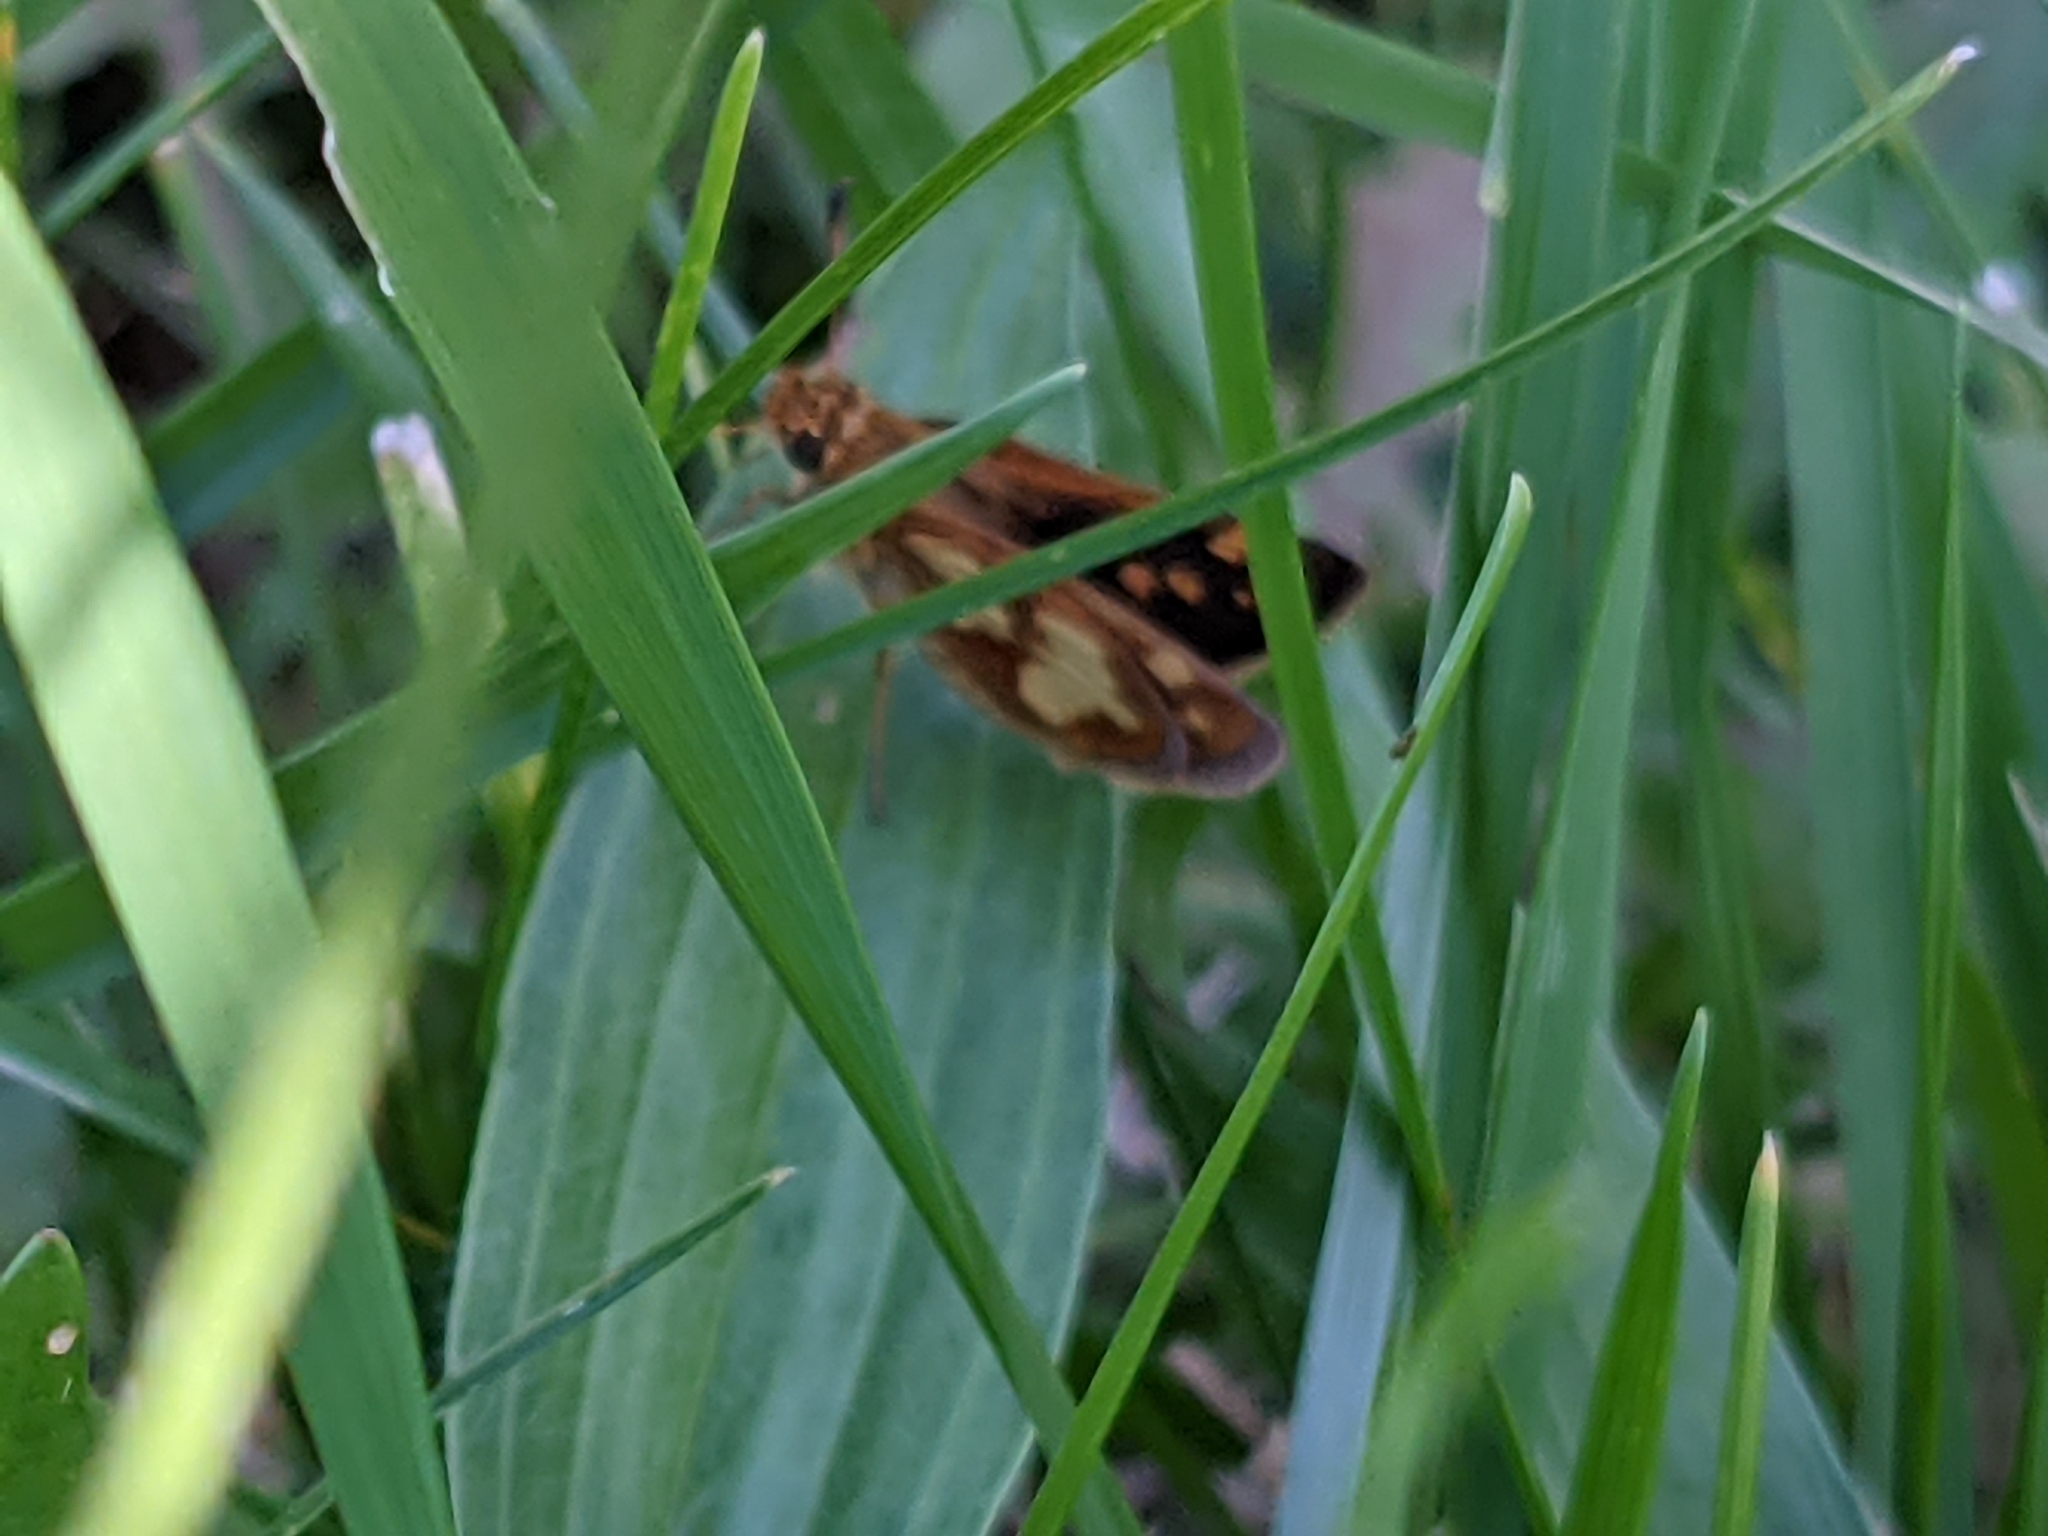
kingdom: Animalia
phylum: Arthropoda
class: Insecta
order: Lepidoptera
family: Hesperiidae
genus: Polites
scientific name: Polites coras
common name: Peck's skipper
